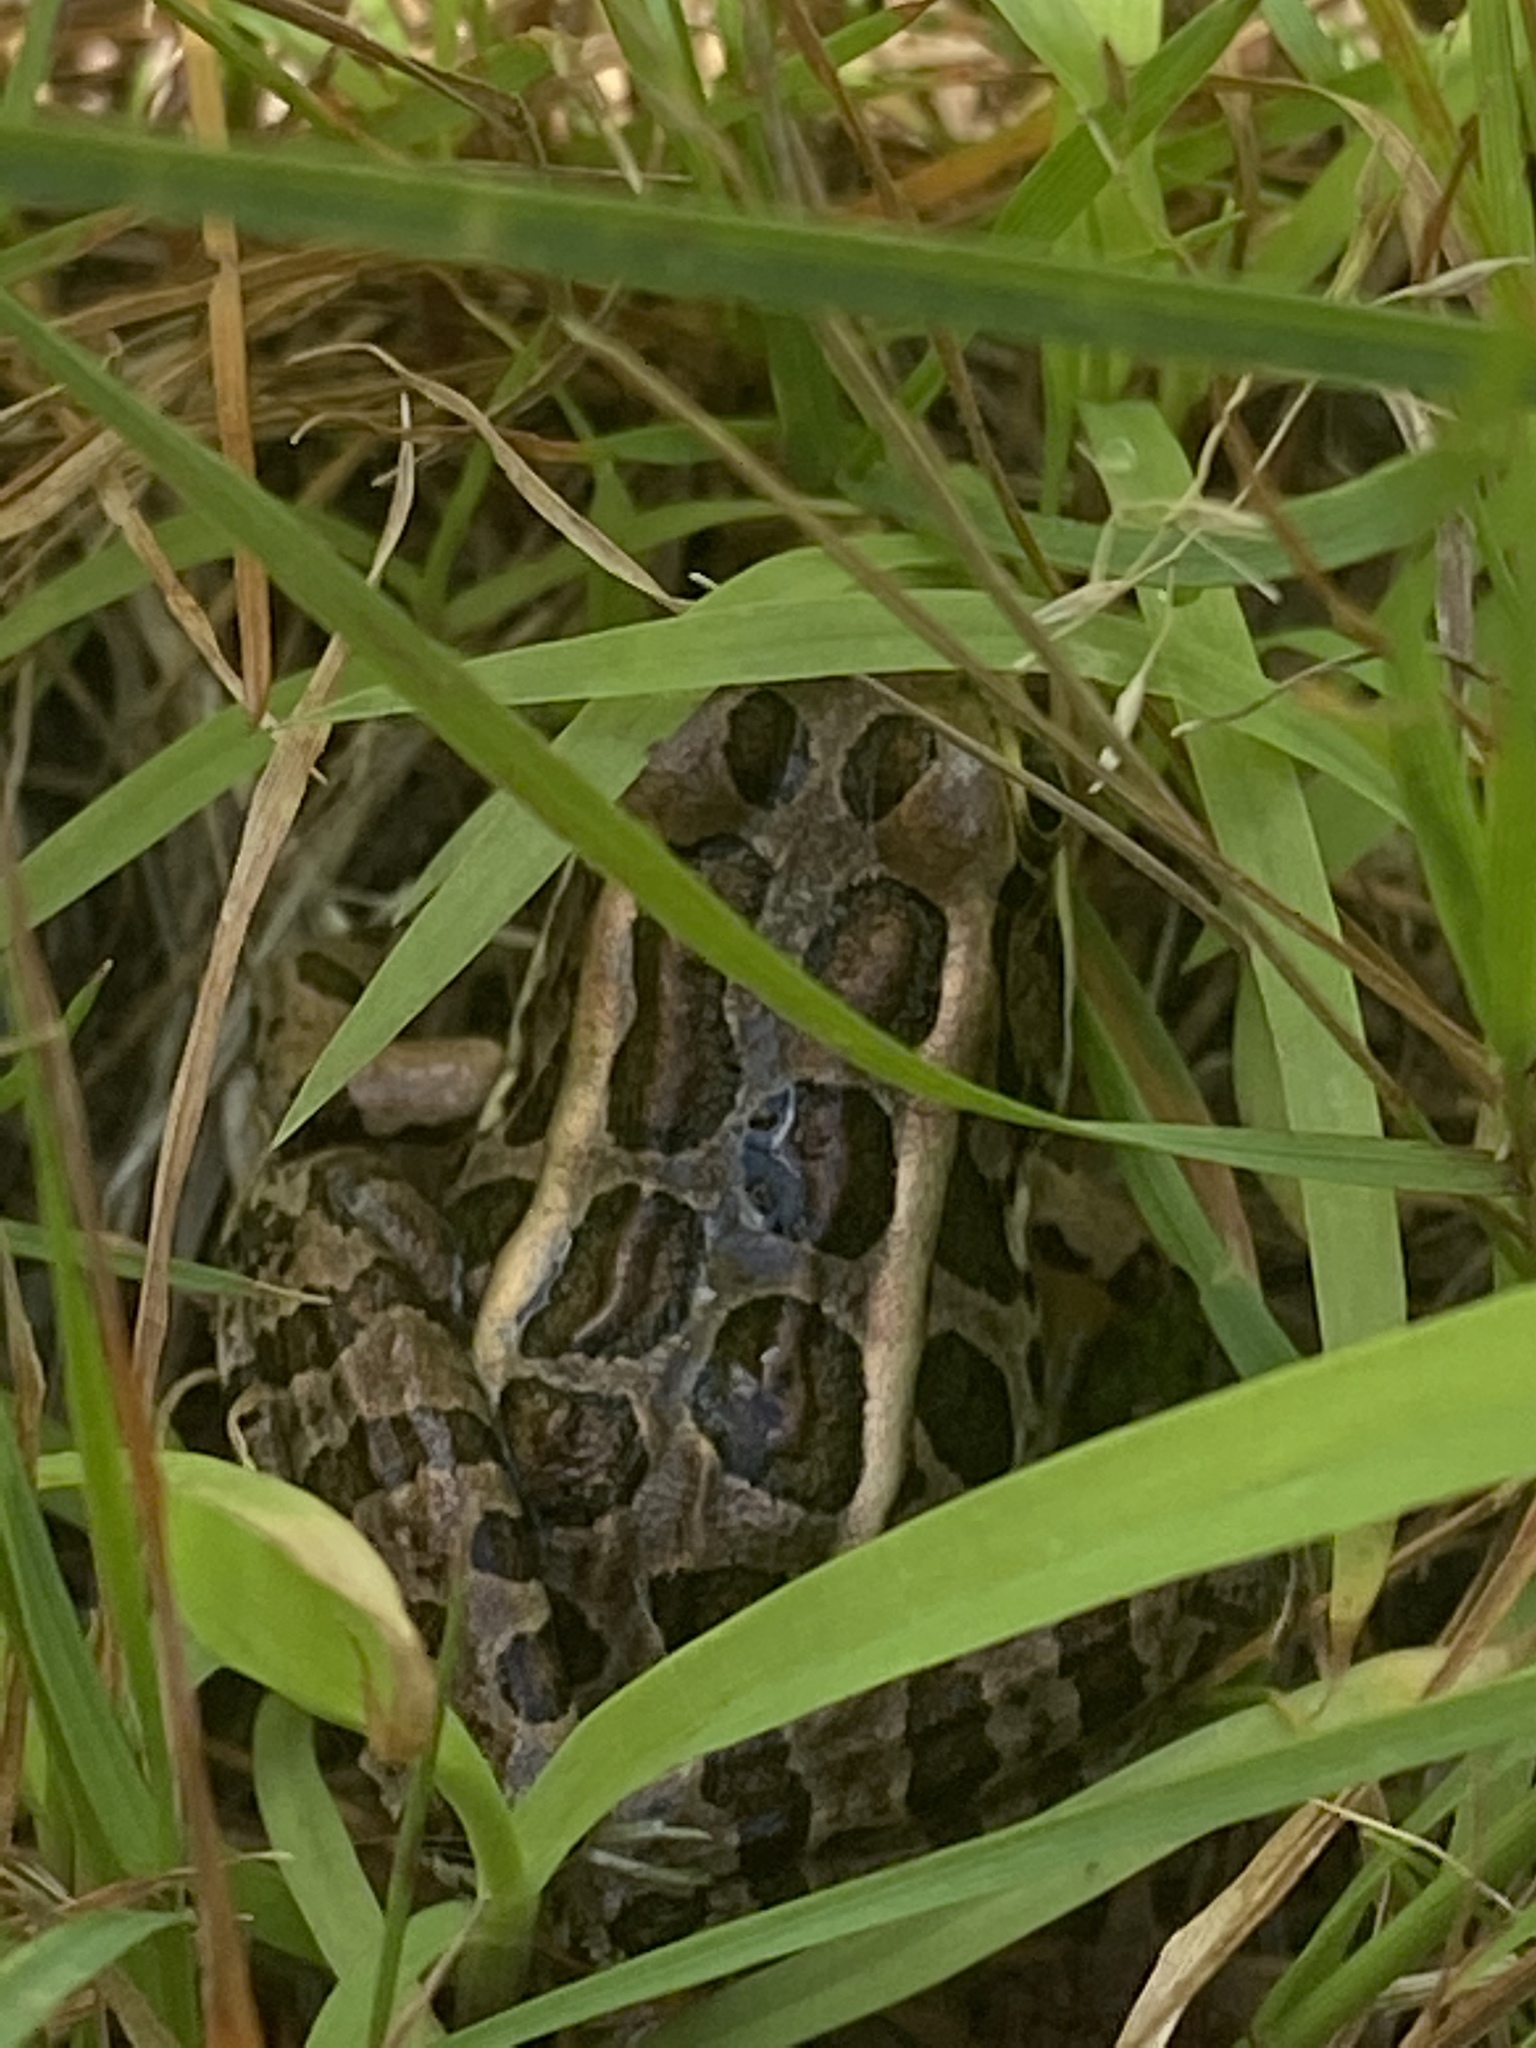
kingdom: Animalia
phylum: Chordata
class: Amphibia
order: Anura
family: Ranidae
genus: Lithobates
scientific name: Lithobates palustris
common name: Pickerel frog
